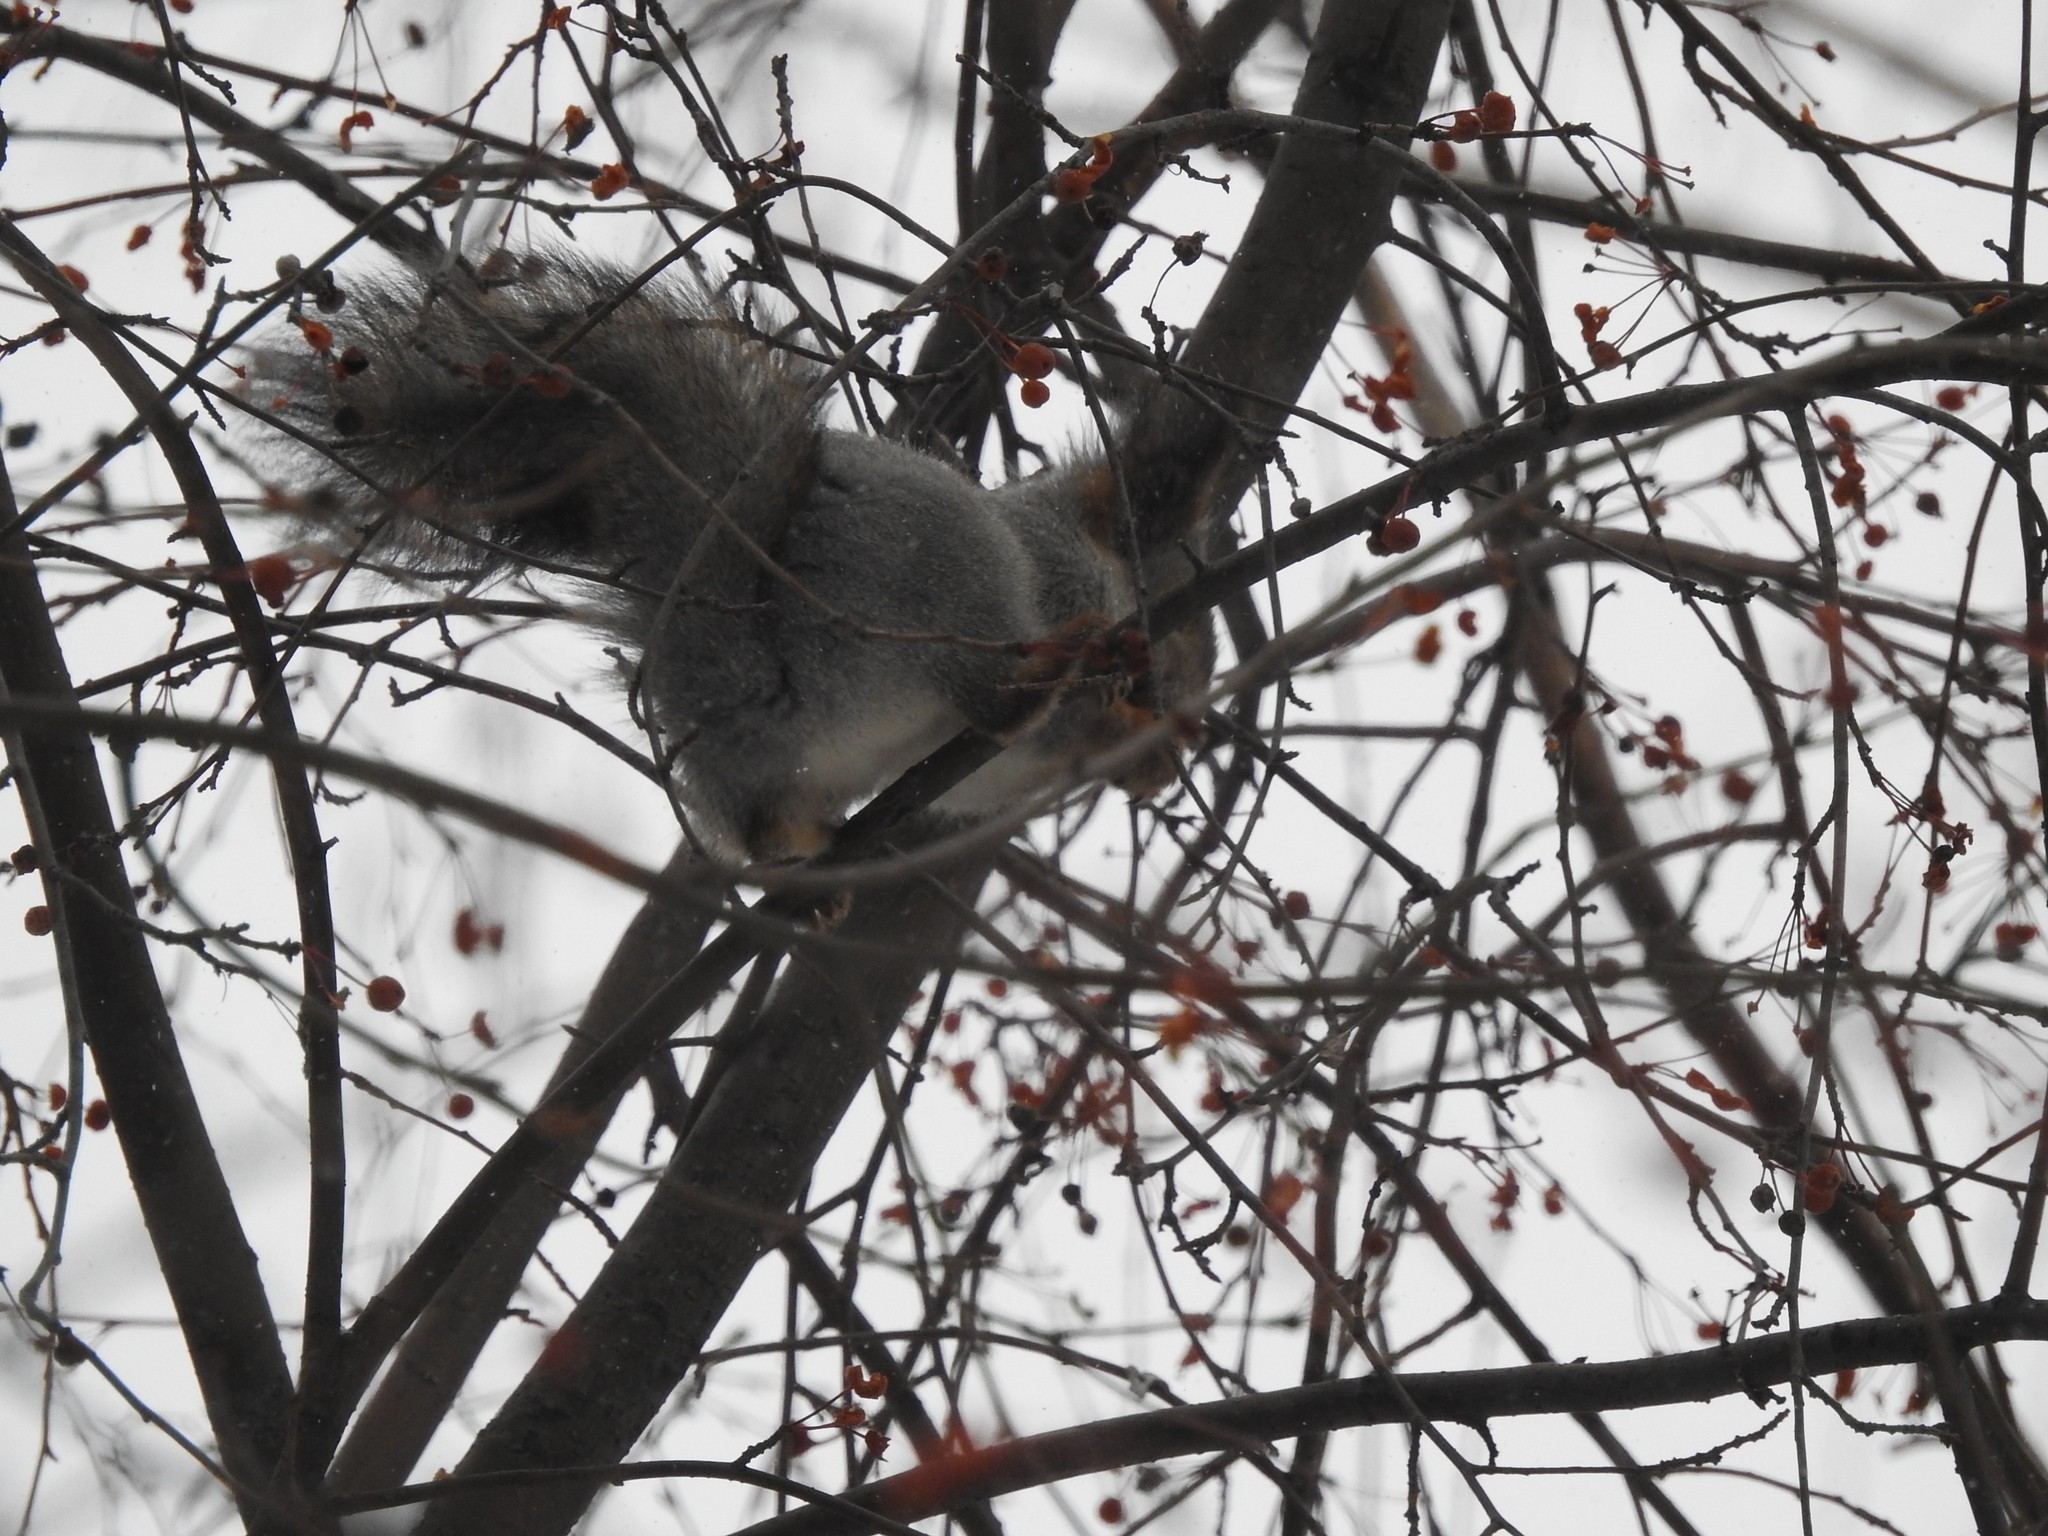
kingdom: Animalia
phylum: Chordata
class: Mammalia
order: Rodentia
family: Sciuridae
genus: Sciurus
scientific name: Sciurus vulgaris
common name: Eurasian red squirrel
